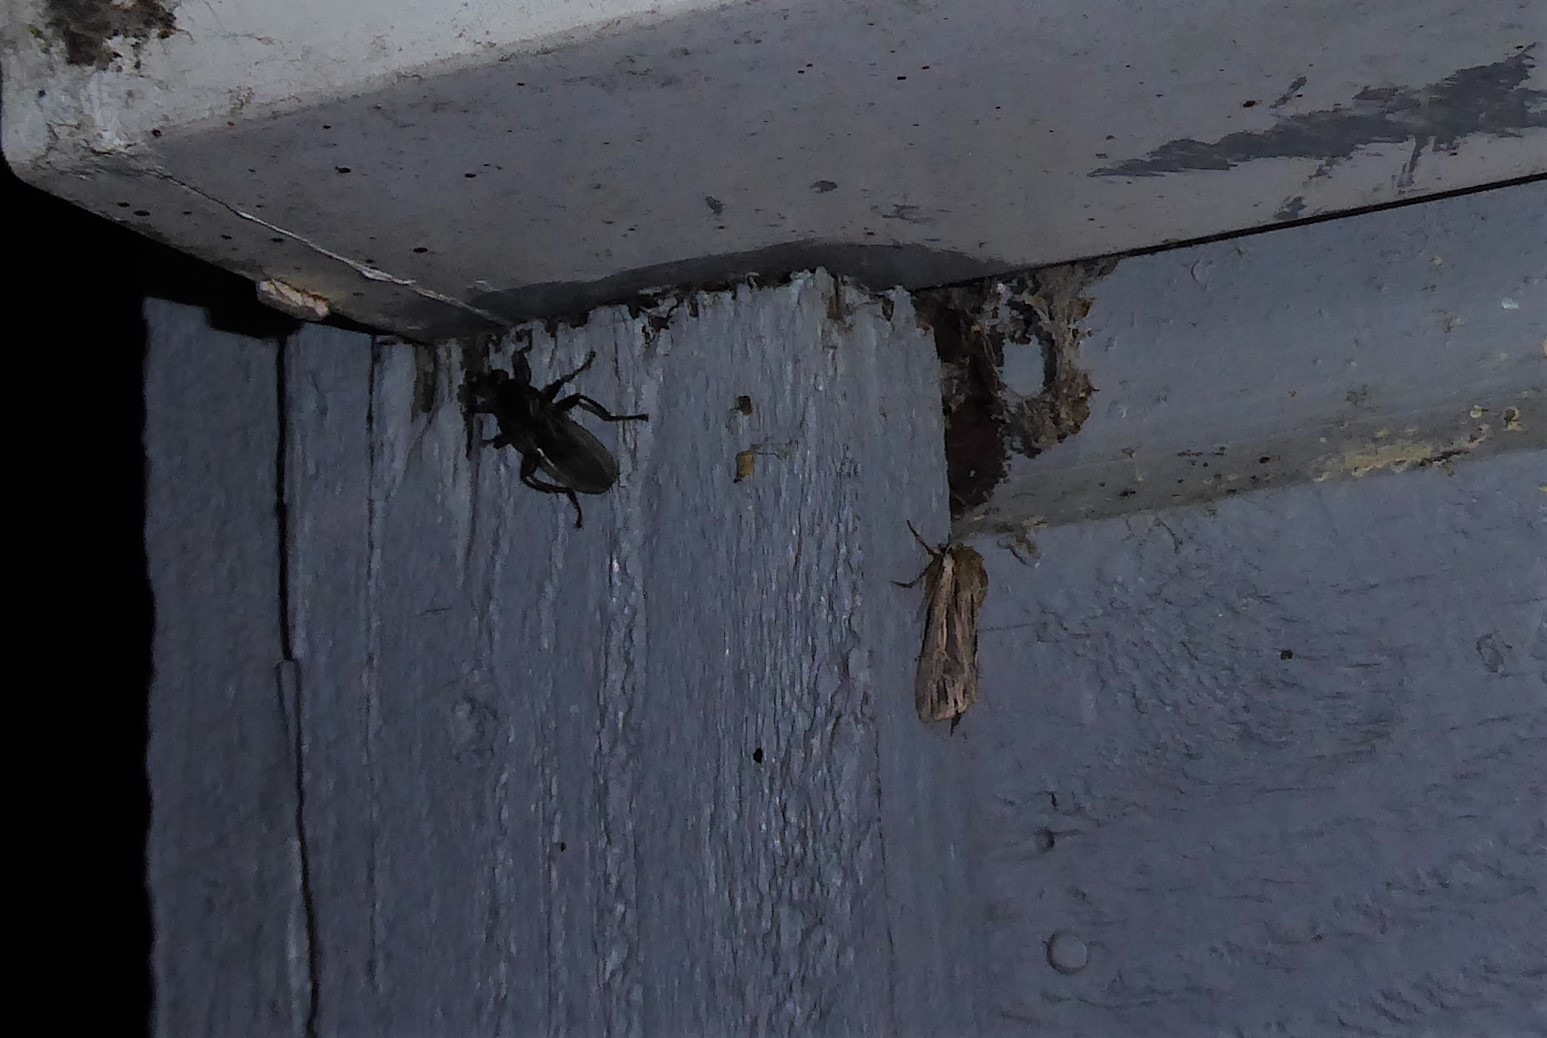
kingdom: Animalia
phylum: Arthropoda
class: Insecta
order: Diptera
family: Coelopidae
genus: Baeopterus
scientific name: Baeopterus philpotti
